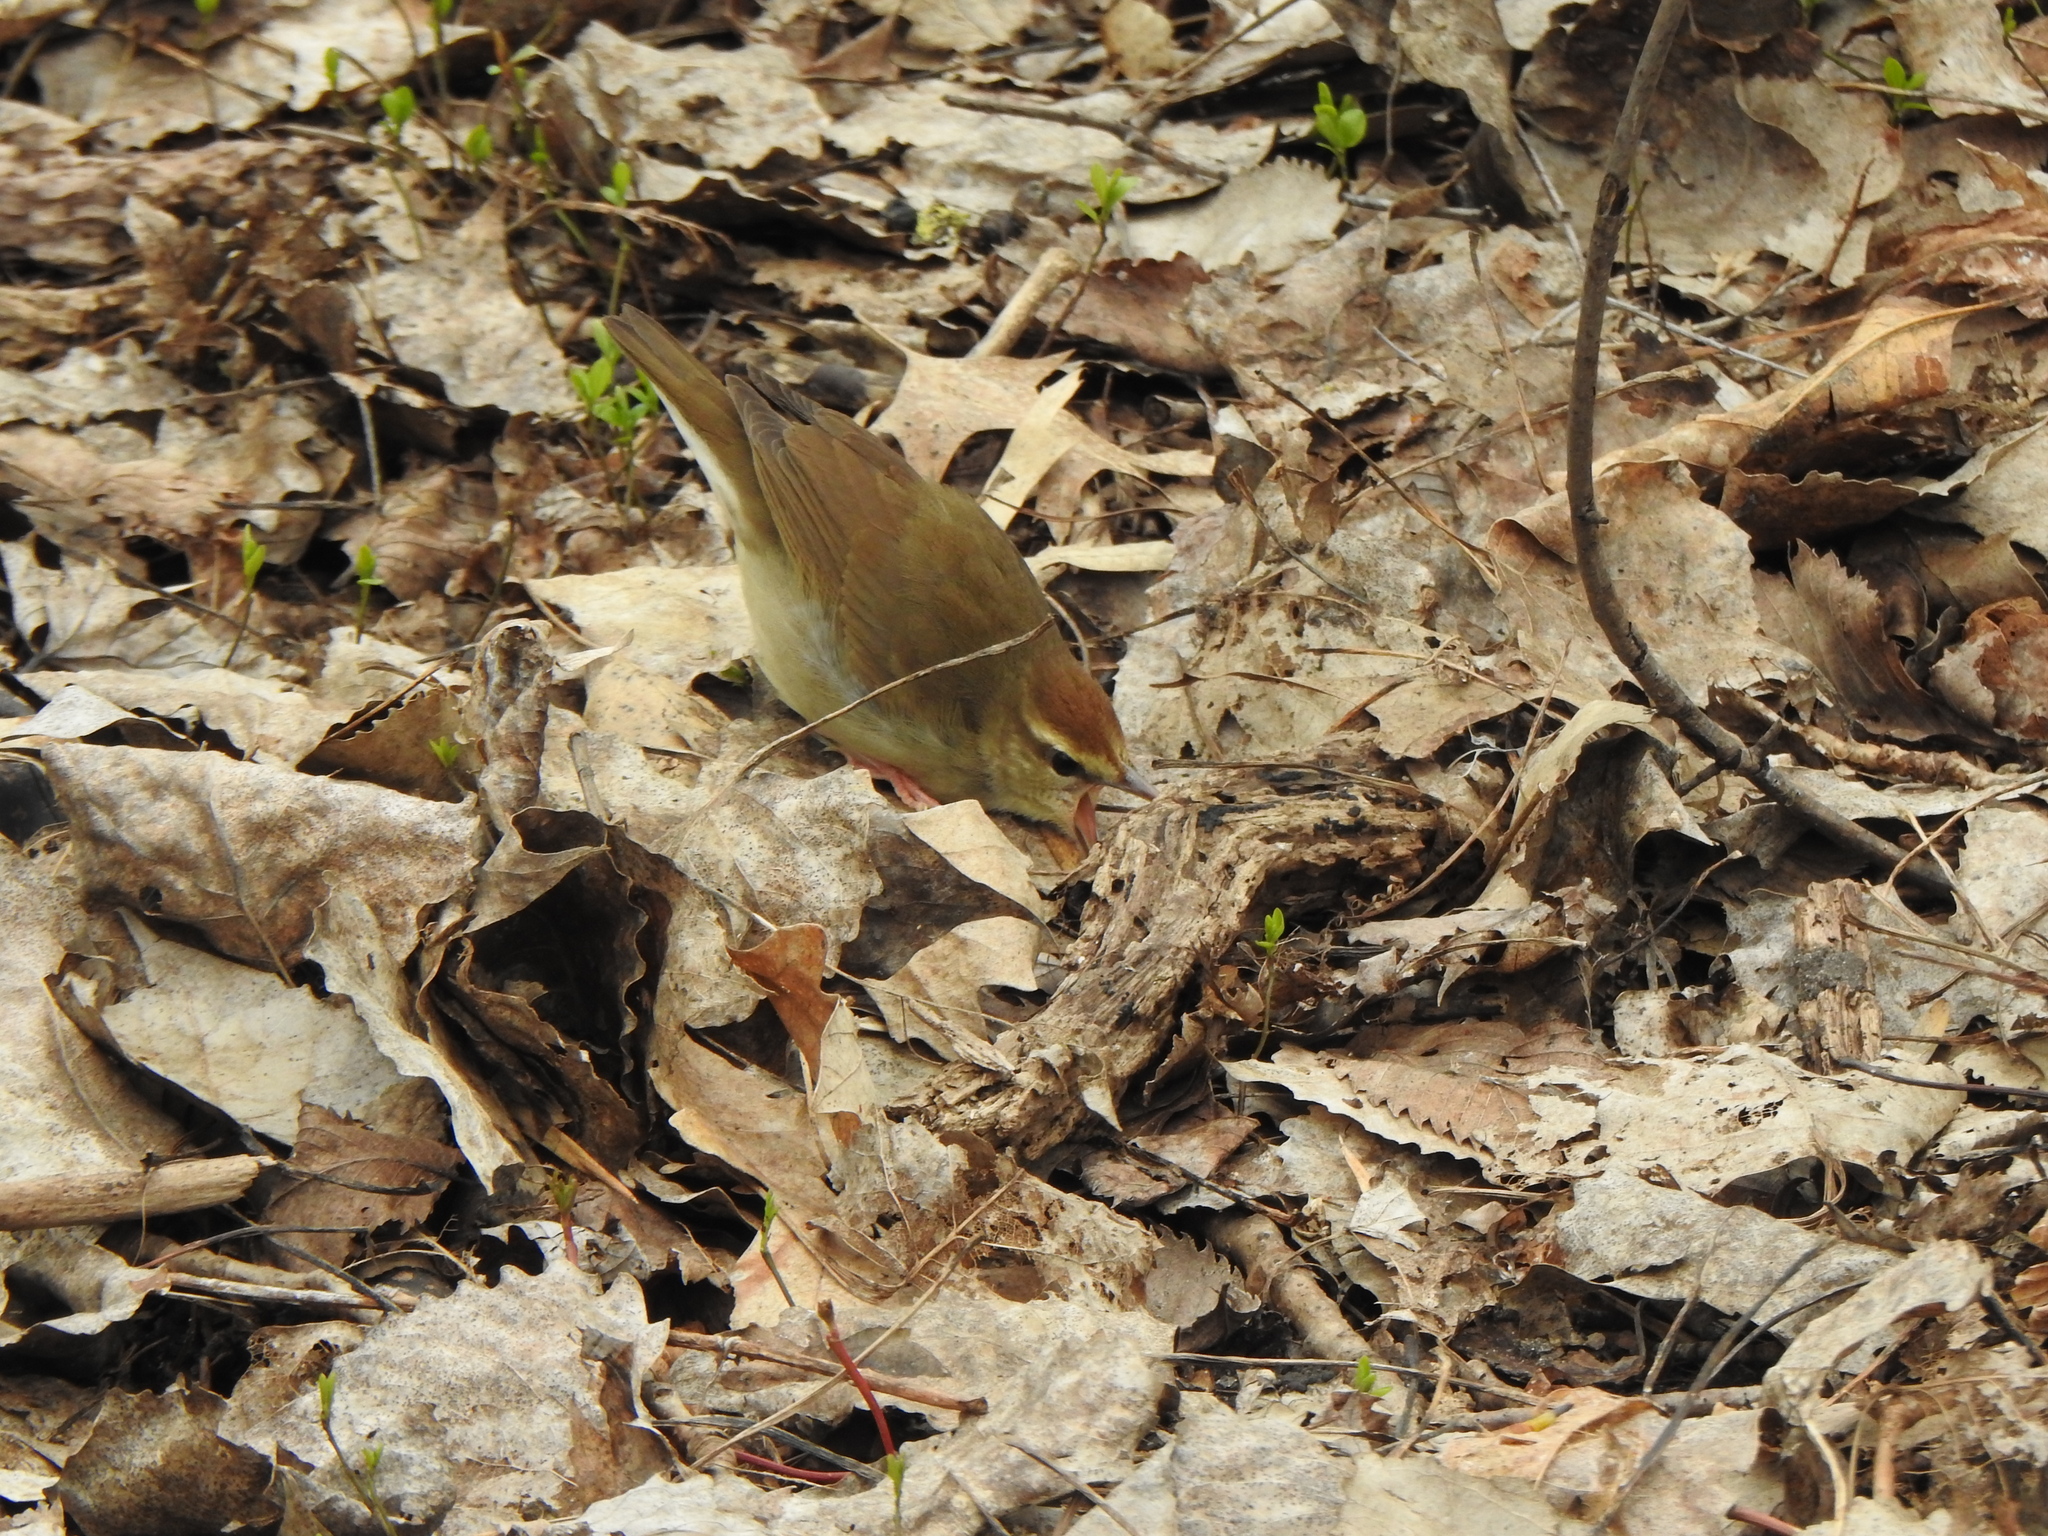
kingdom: Animalia
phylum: Chordata
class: Aves
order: Passeriformes
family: Parulidae
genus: Limnothlypis
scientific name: Limnothlypis swainsonii
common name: Swainson's warbler
